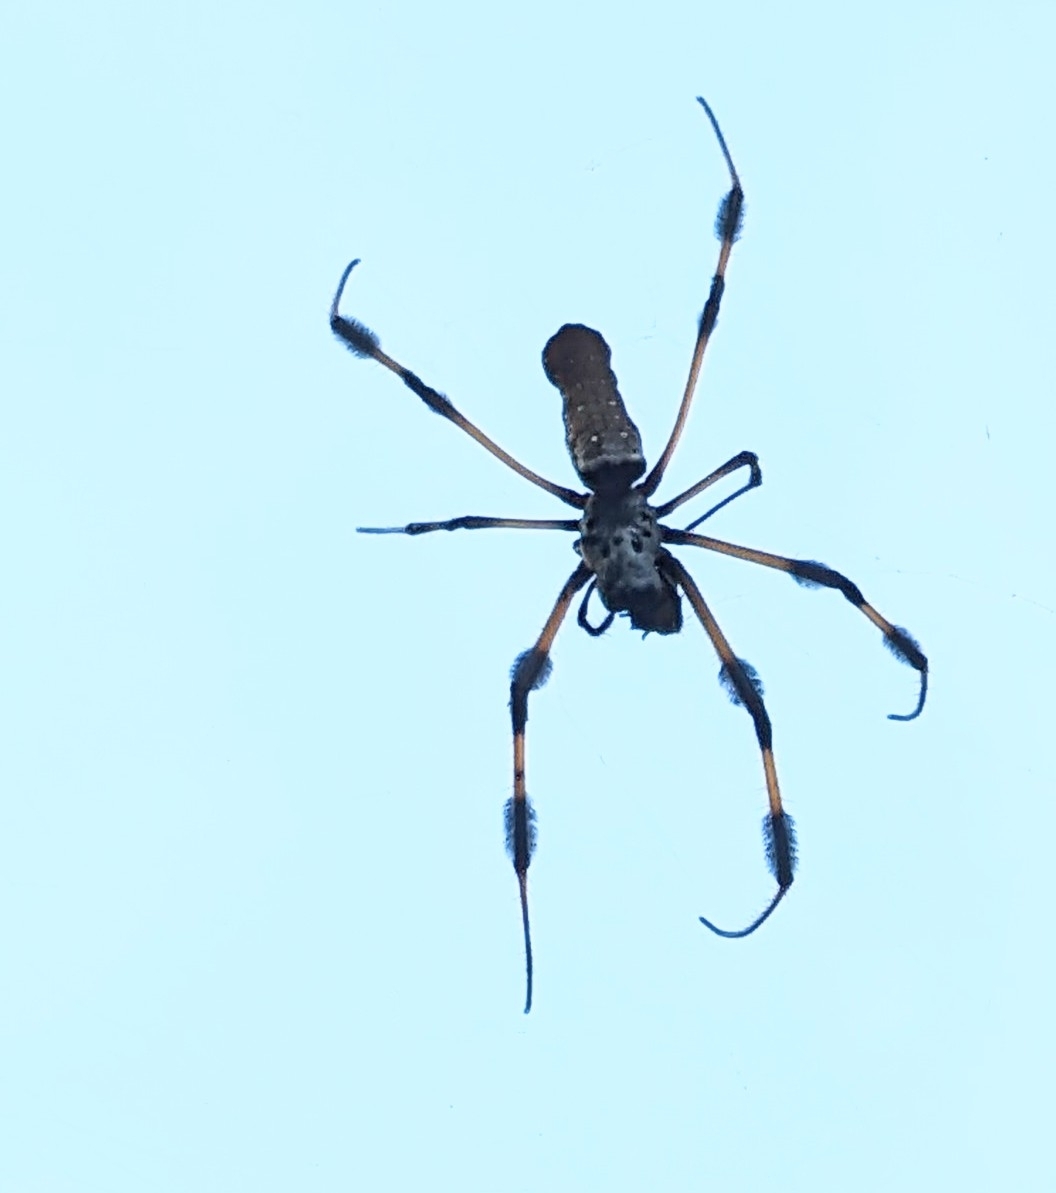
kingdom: Animalia
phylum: Arthropoda
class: Arachnida
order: Araneae
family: Araneidae
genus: Trichonephila
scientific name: Trichonephila clavipes
